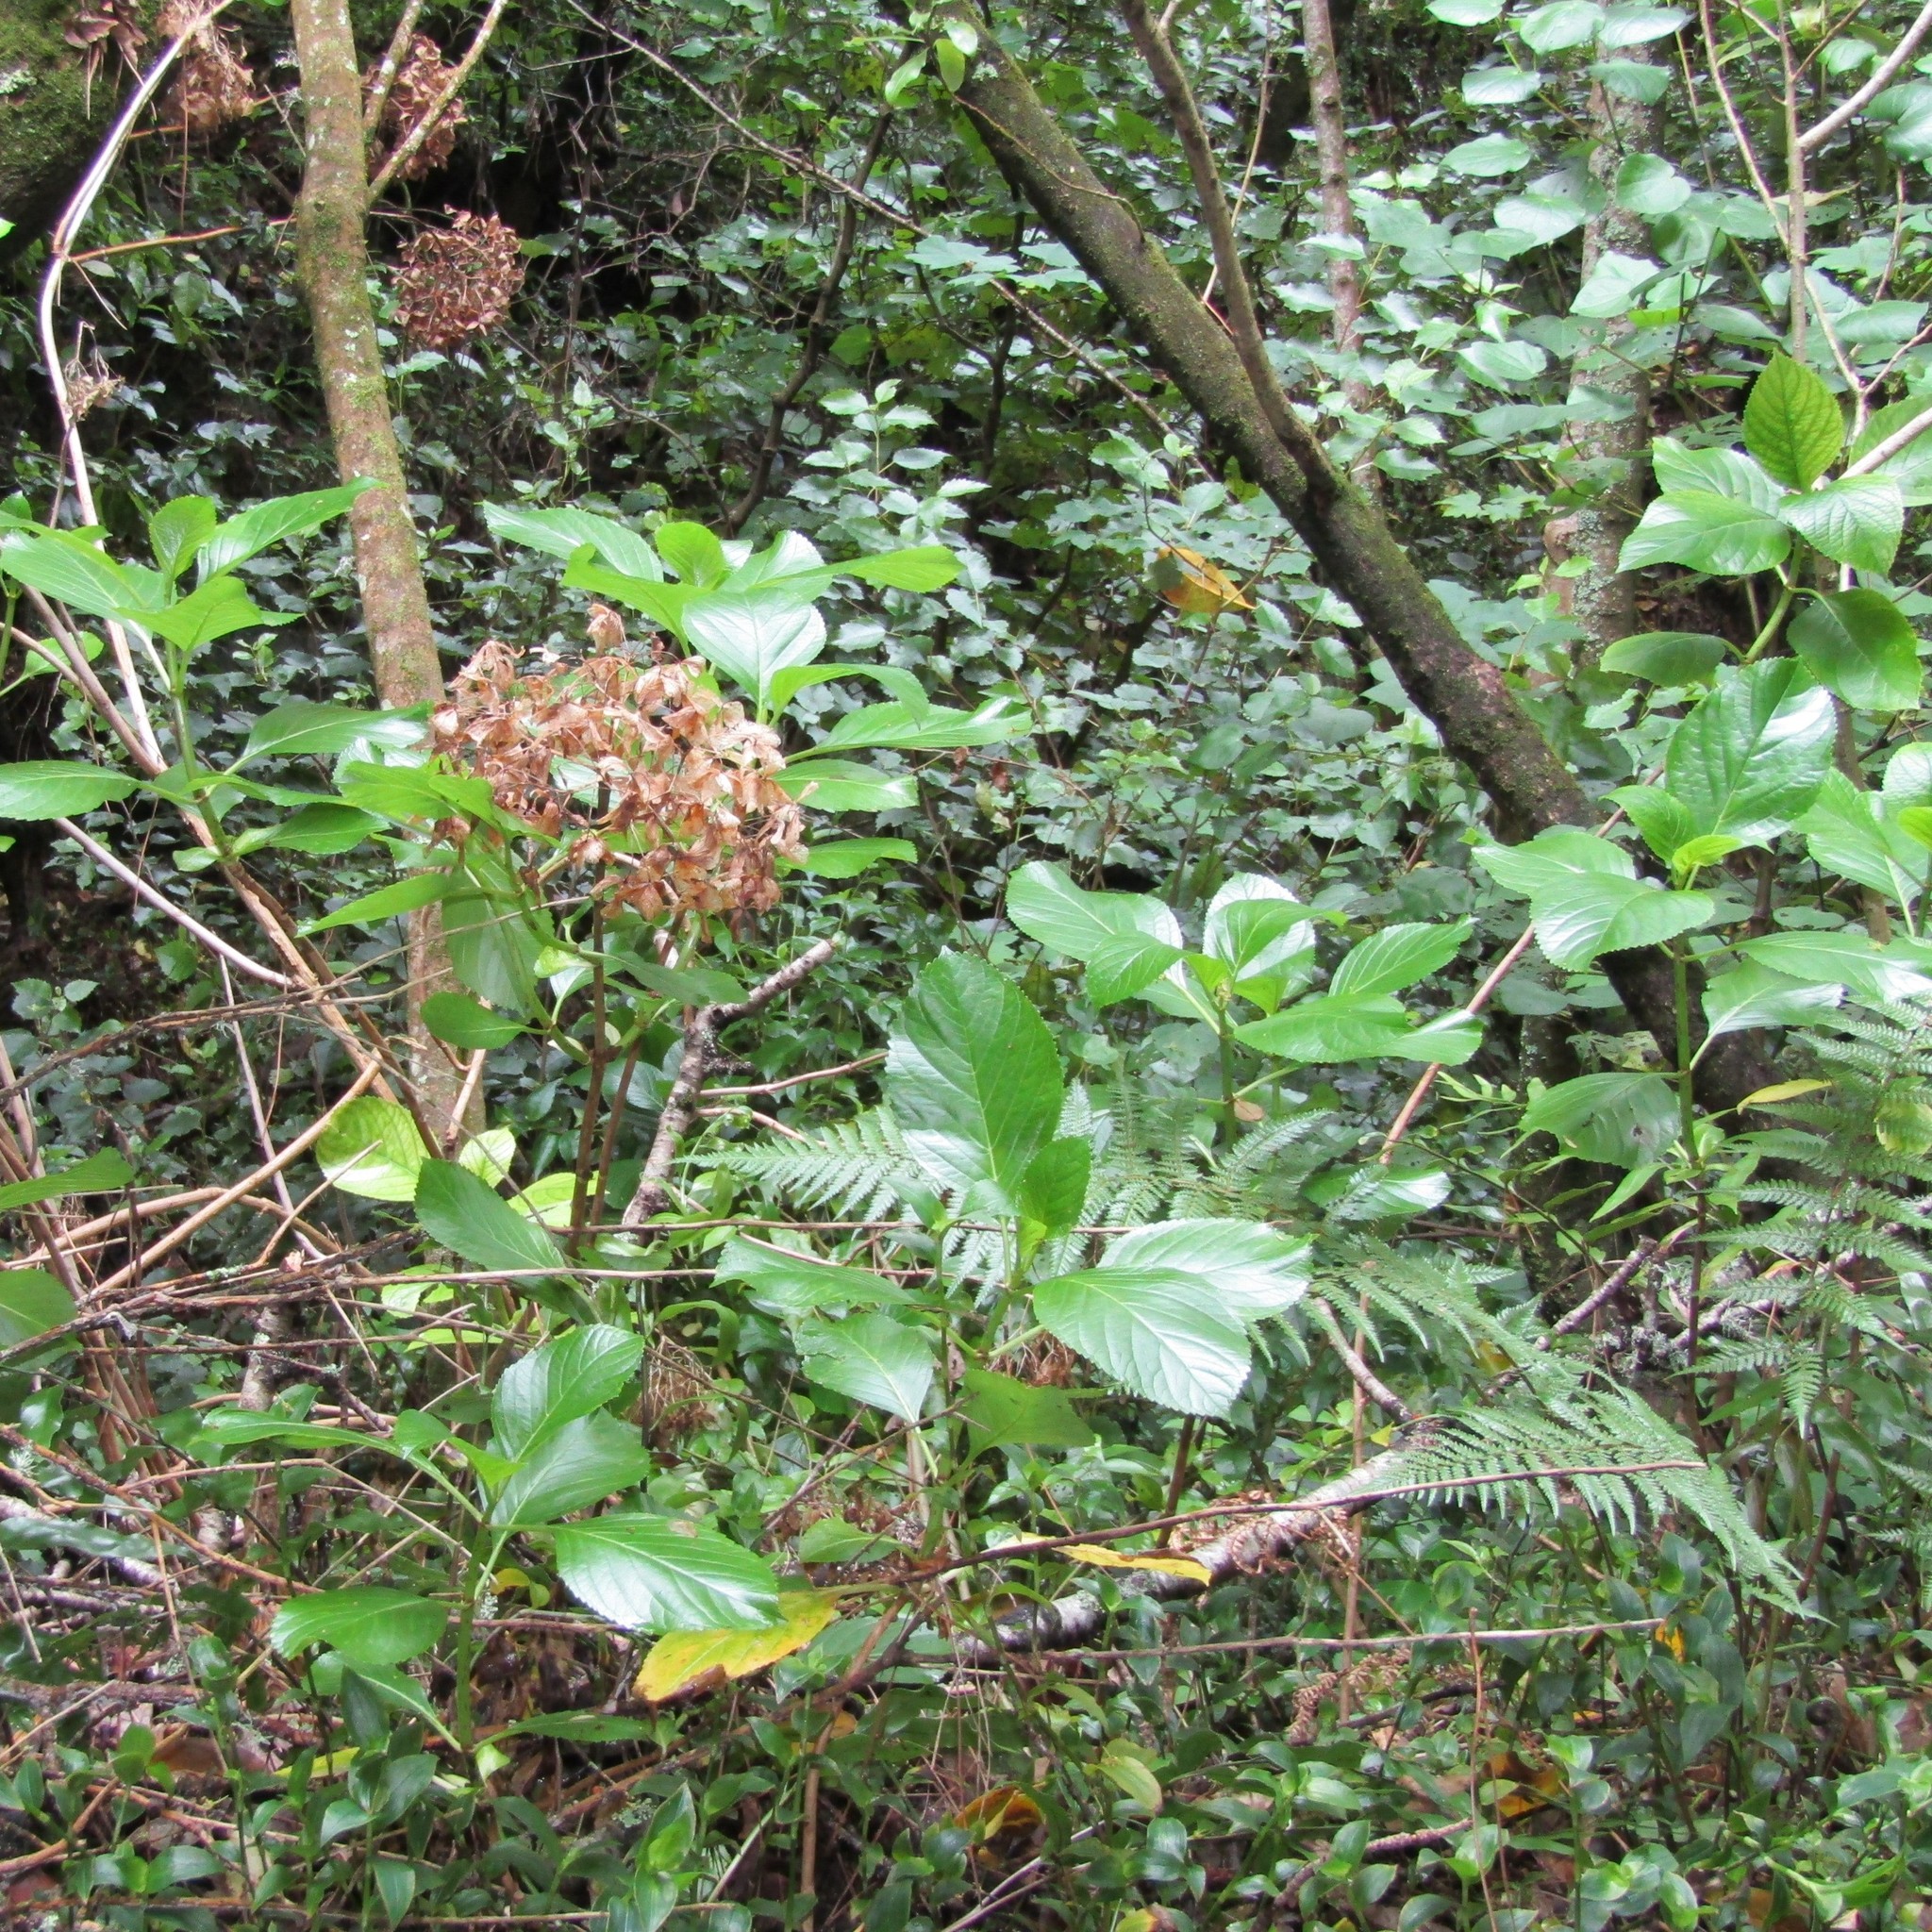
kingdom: Plantae
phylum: Tracheophyta
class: Magnoliopsida
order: Cornales
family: Hydrangeaceae
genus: Hydrangea
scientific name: Hydrangea macrophylla
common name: Hydrangea
